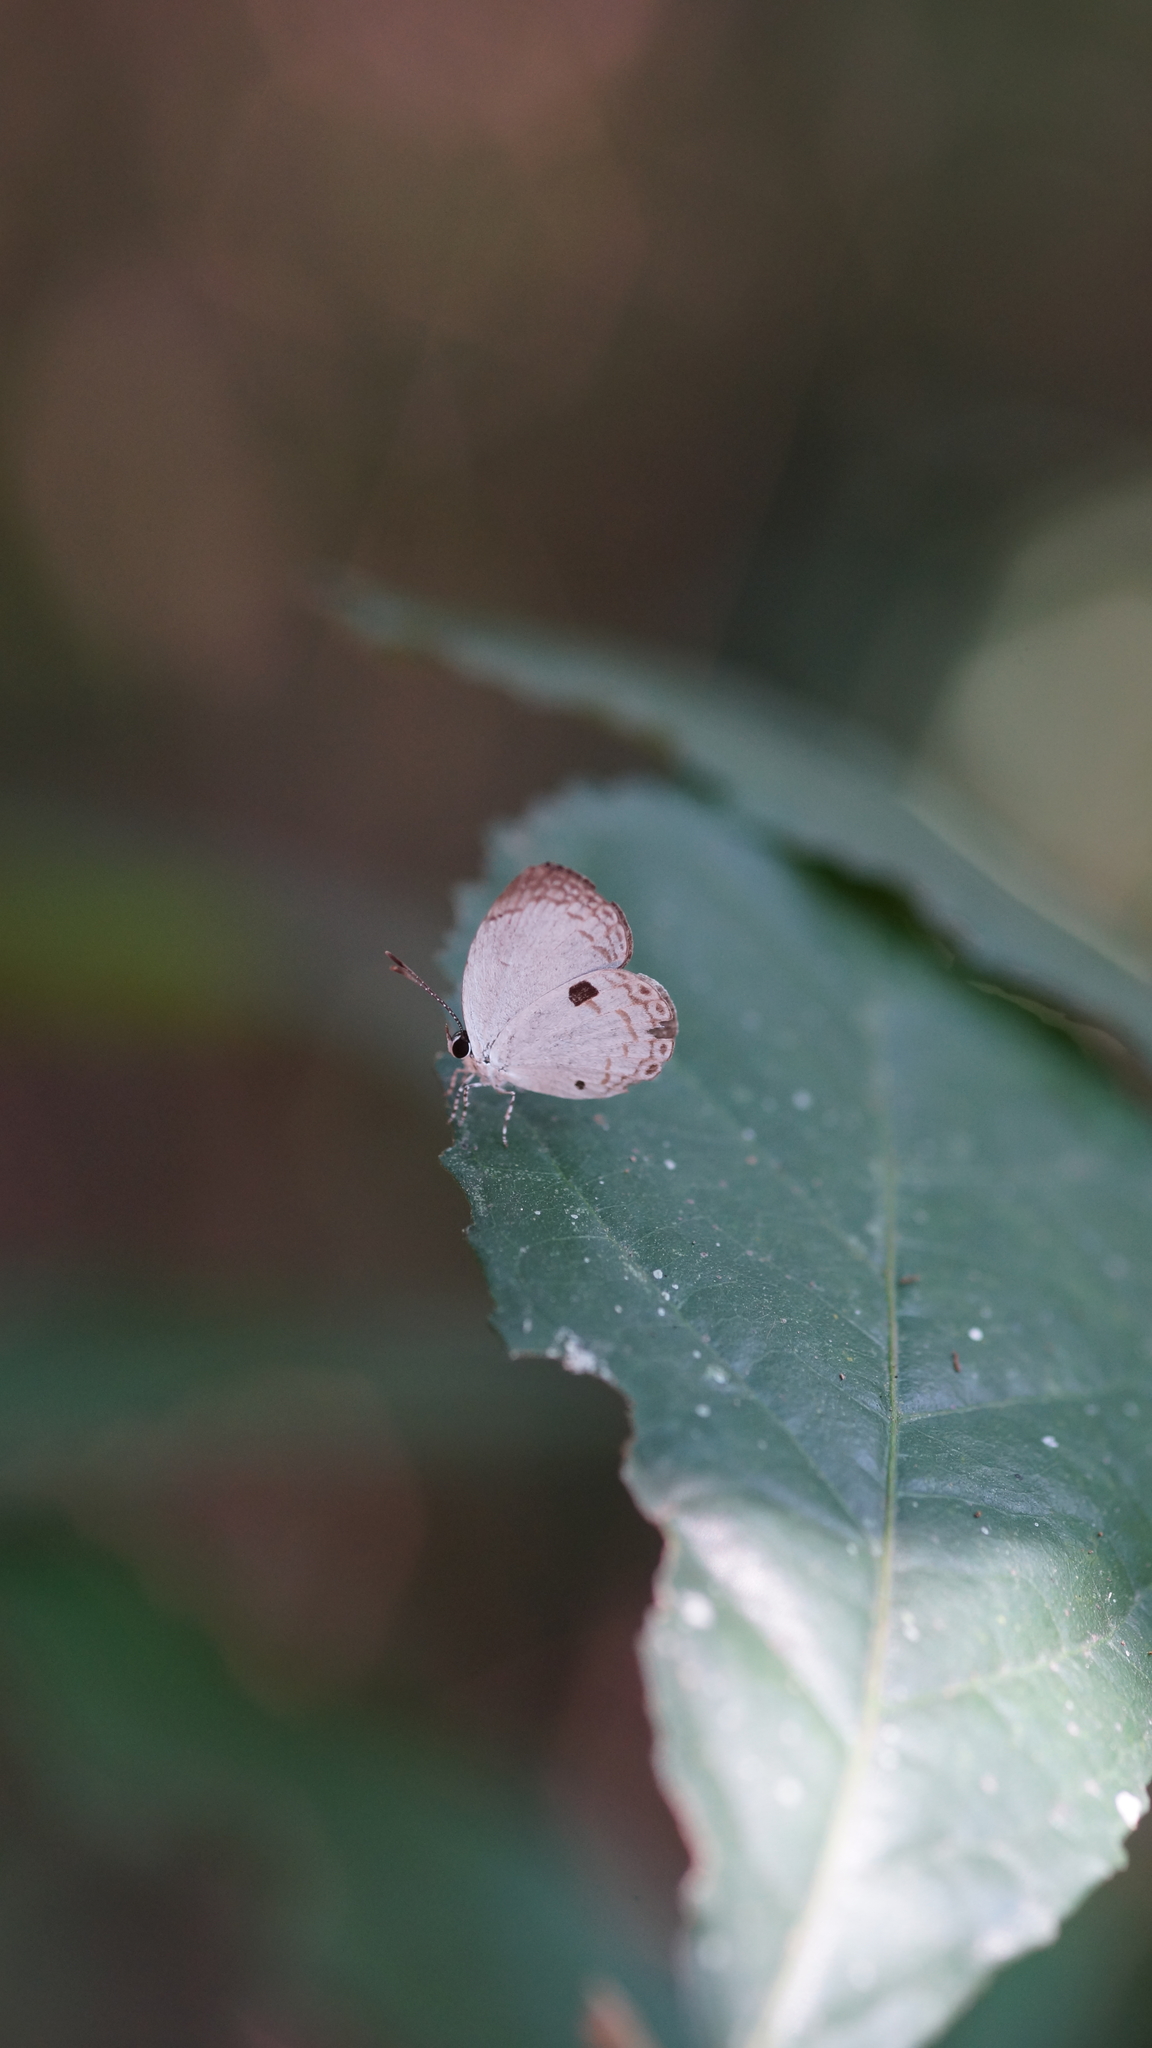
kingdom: Animalia
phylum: Arthropoda
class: Insecta
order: Lepidoptera
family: Lycaenidae
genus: Neopithecops
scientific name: Neopithecops zalmora
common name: Quaker
